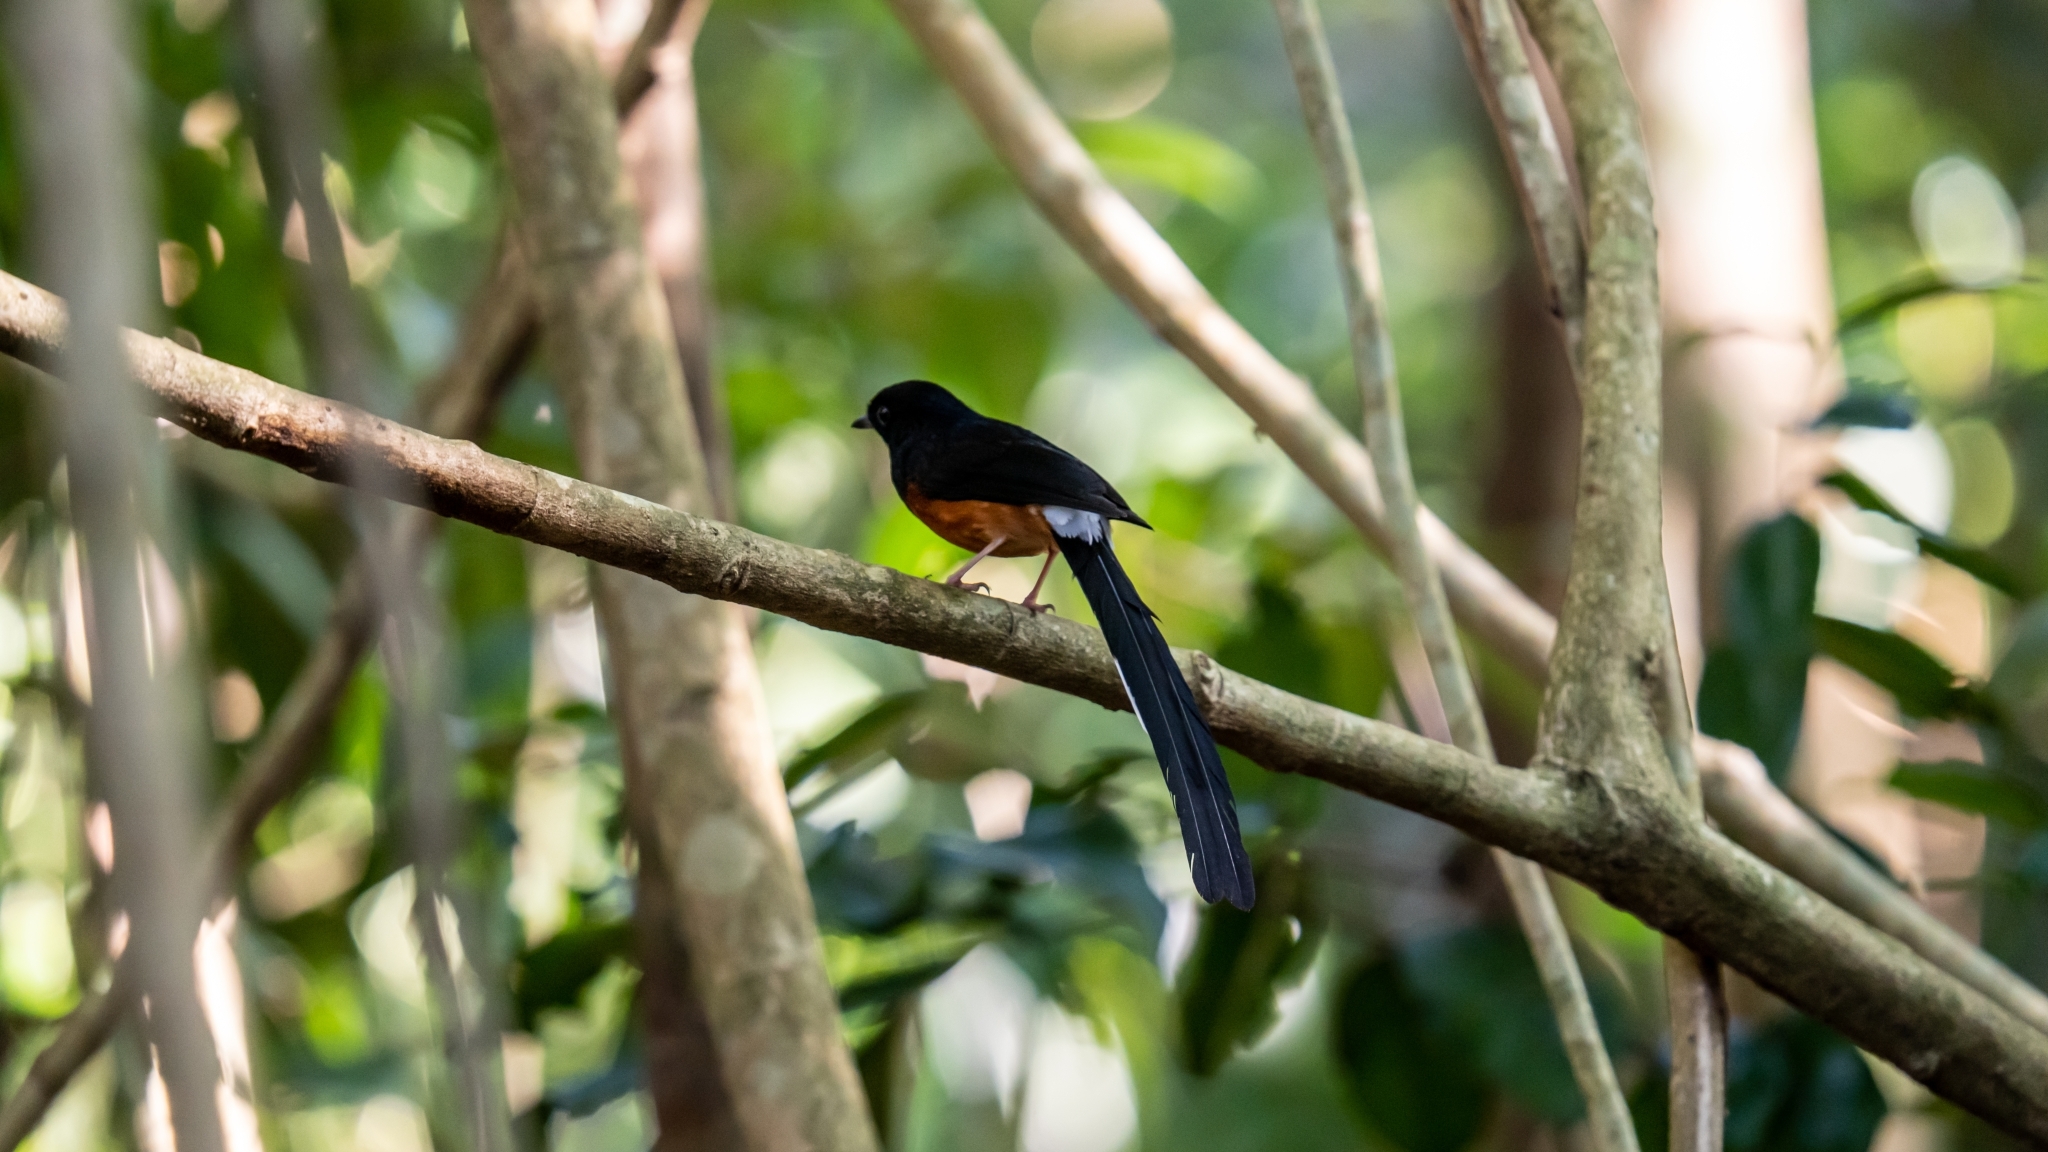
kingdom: Animalia
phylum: Chordata
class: Aves
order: Passeriformes
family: Muscicapidae
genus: Copsychus
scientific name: Copsychus malabaricus
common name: White-rumped shama
